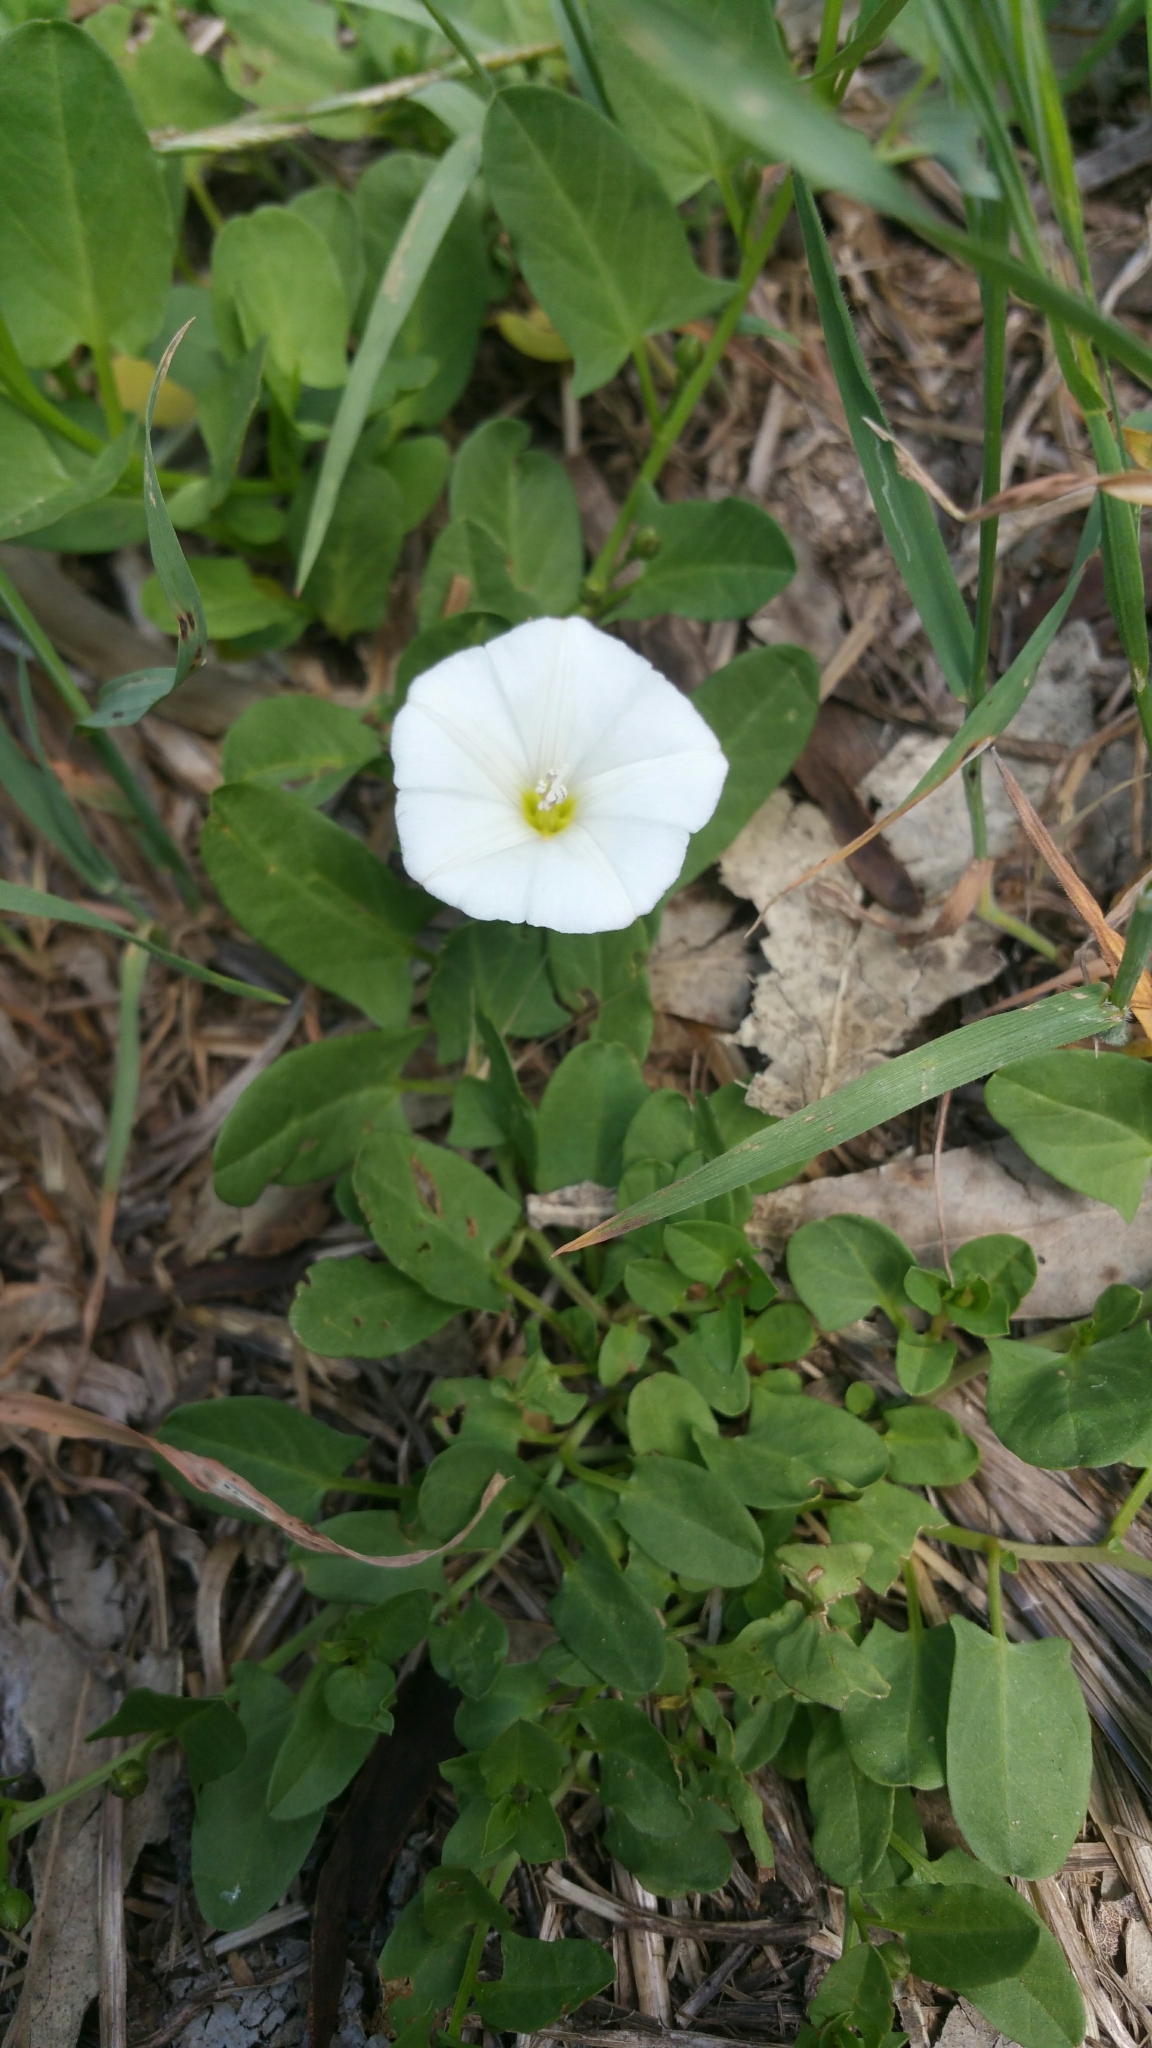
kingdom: Plantae
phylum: Tracheophyta
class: Magnoliopsida
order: Solanales
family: Convolvulaceae
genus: Convolvulus
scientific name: Convolvulus arvensis
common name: Field bindweed
